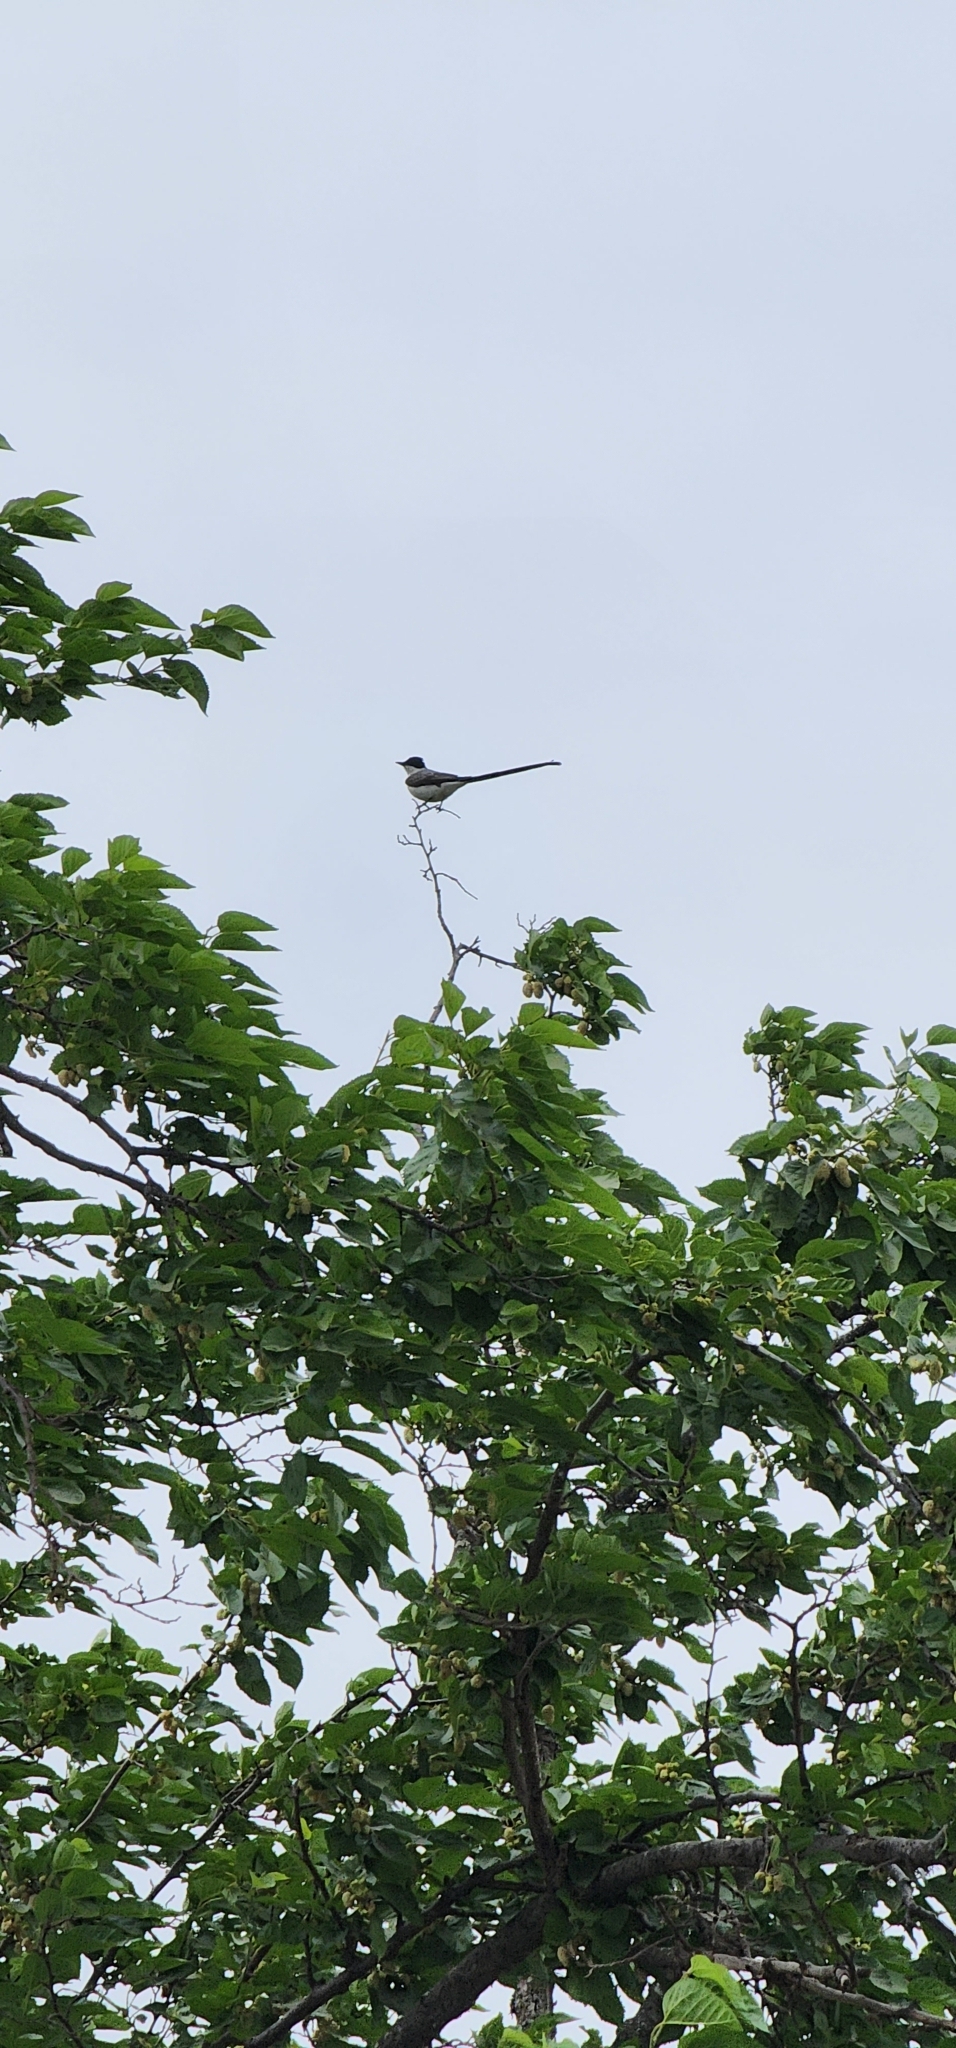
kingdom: Animalia
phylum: Chordata
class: Aves
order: Passeriformes
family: Tyrannidae
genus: Tyrannus
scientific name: Tyrannus savana
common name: Fork-tailed flycatcher
